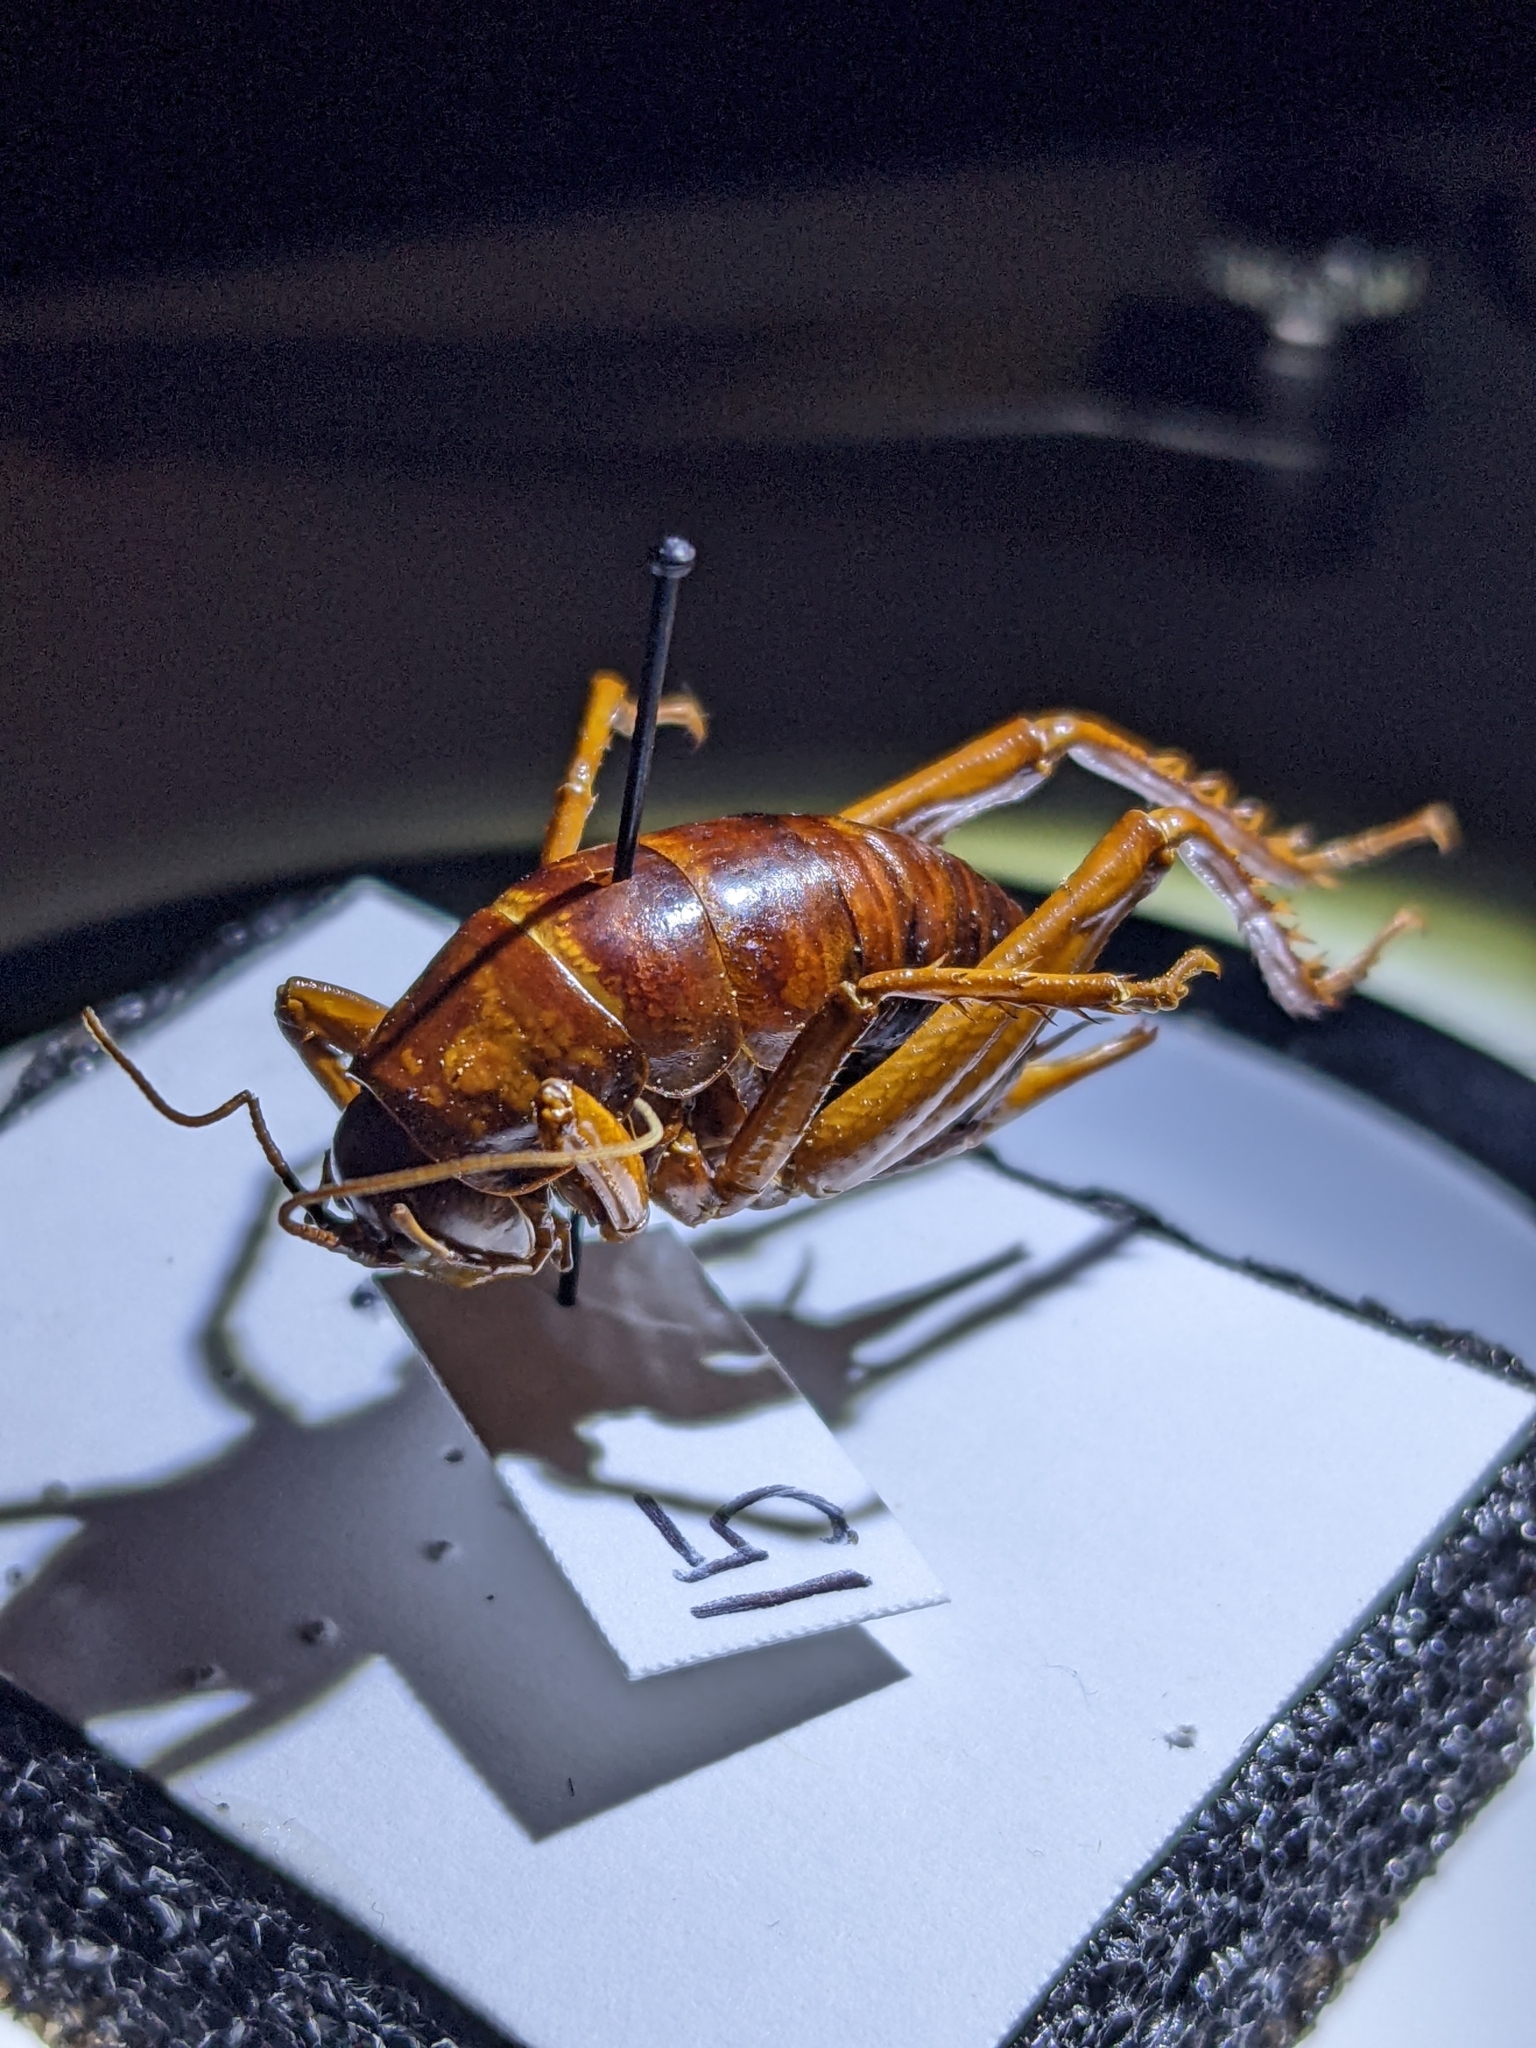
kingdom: Animalia
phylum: Arthropoda
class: Insecta
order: Orthoptera
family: Rhaphidophoridae
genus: Udeopsylla
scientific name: Udeopsylla robusta
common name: Robust camel cricket
